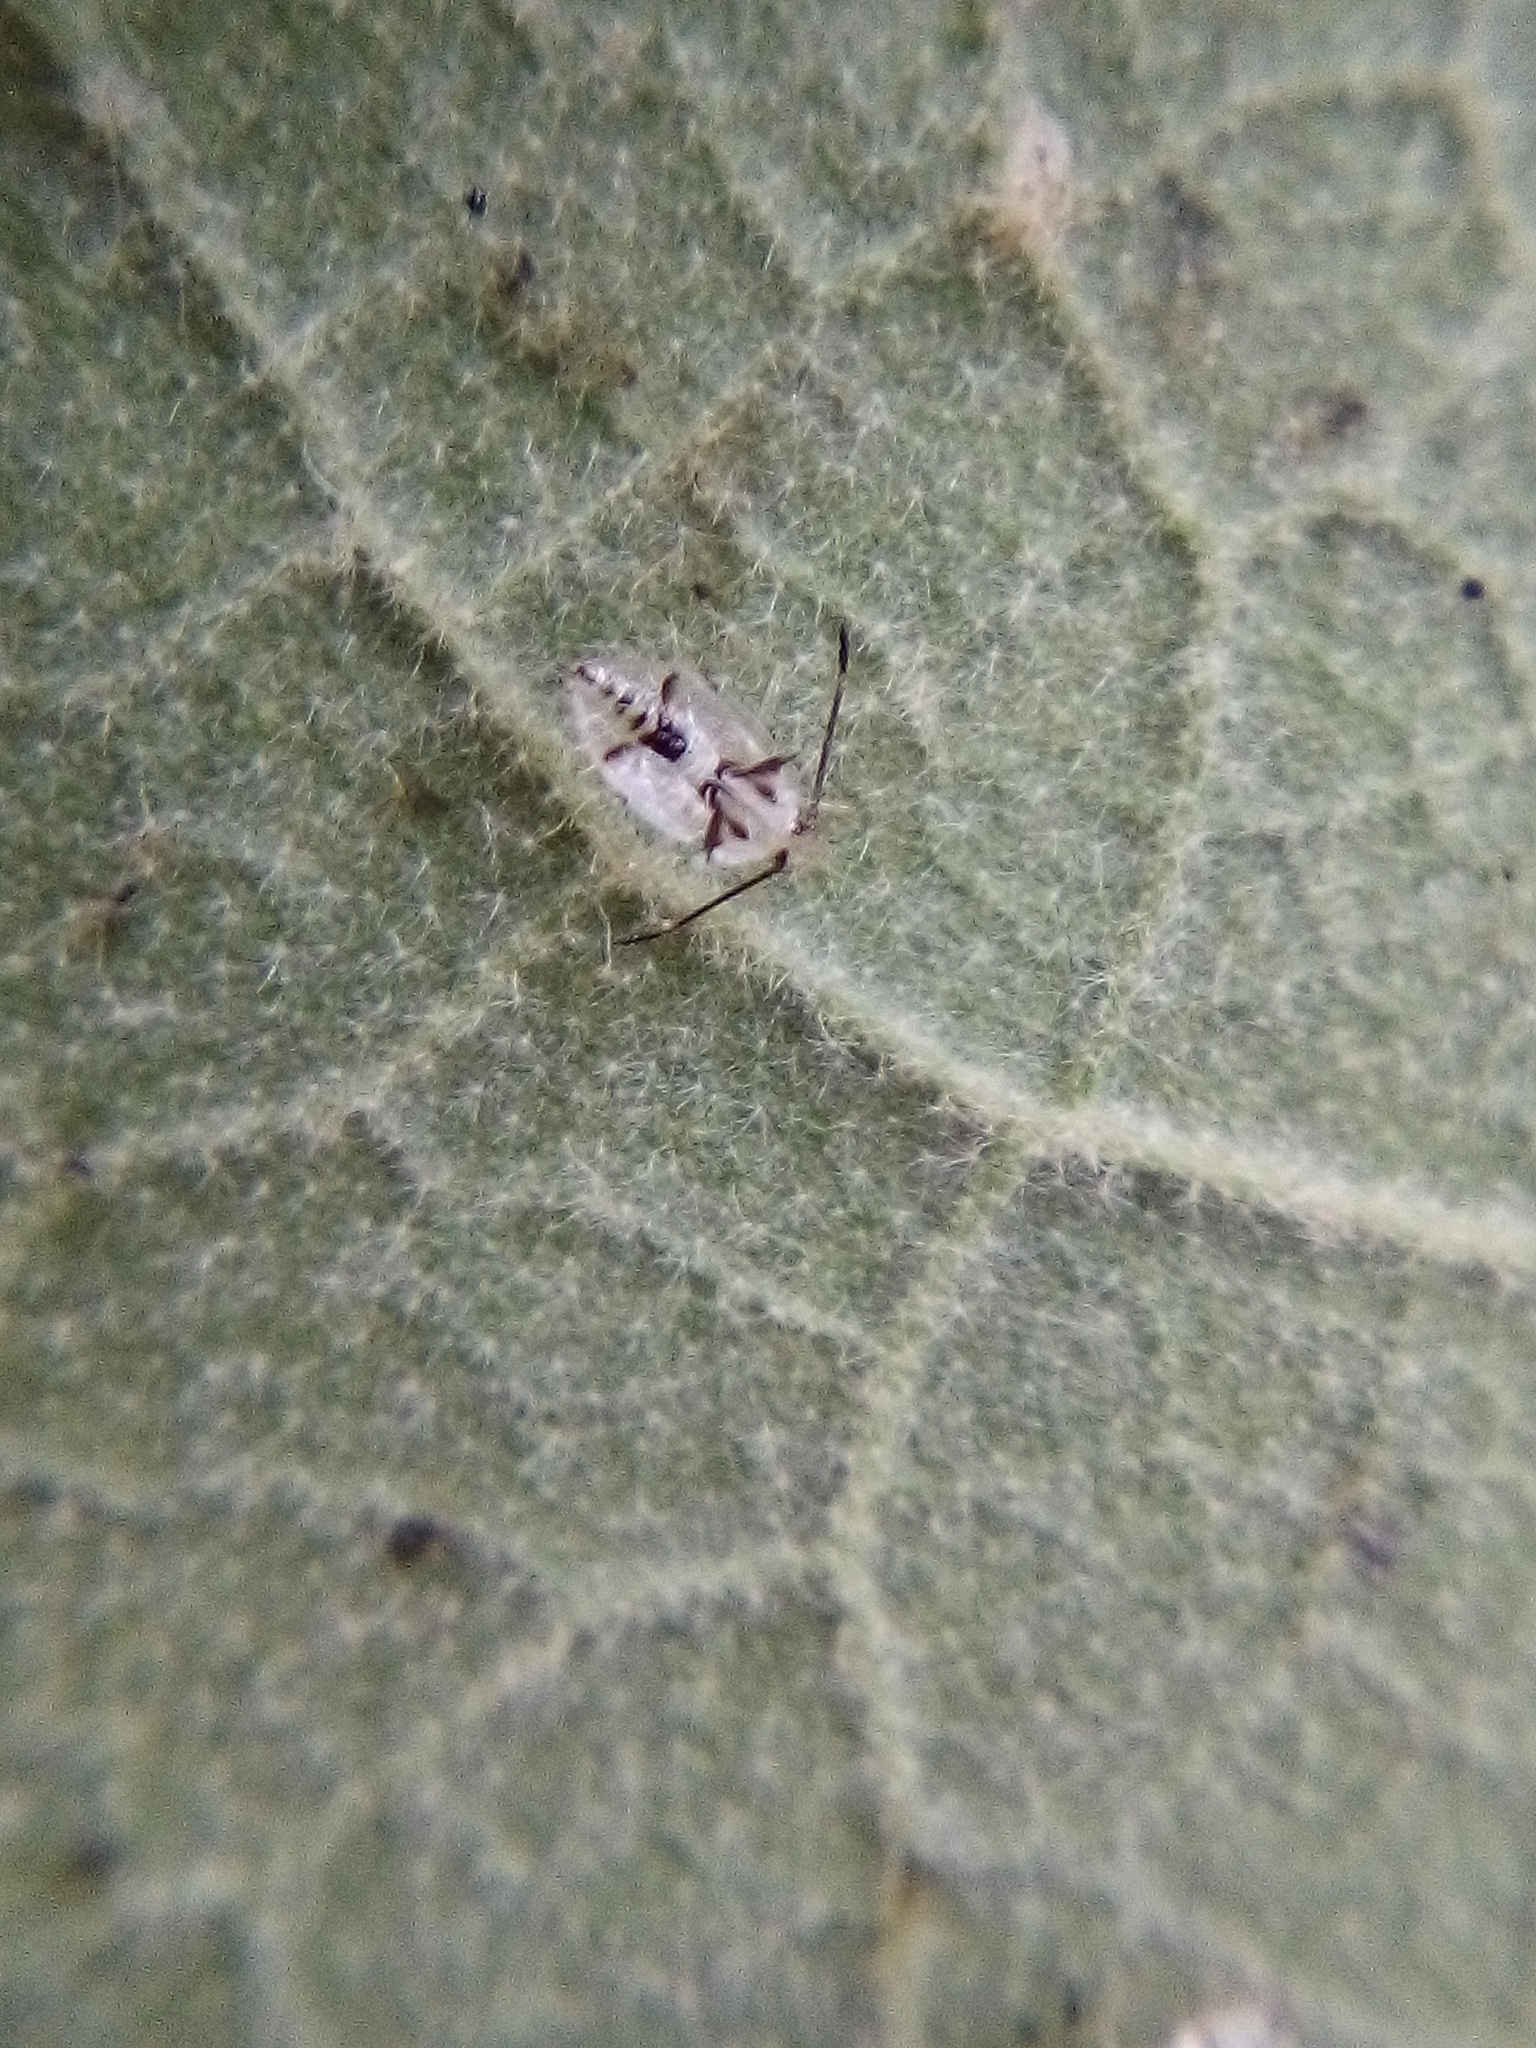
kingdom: Animalia
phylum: Arthropoda
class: Insecta
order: Hemiptera
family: Tingidae
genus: Gargaphia
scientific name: Gargaphia decoris
